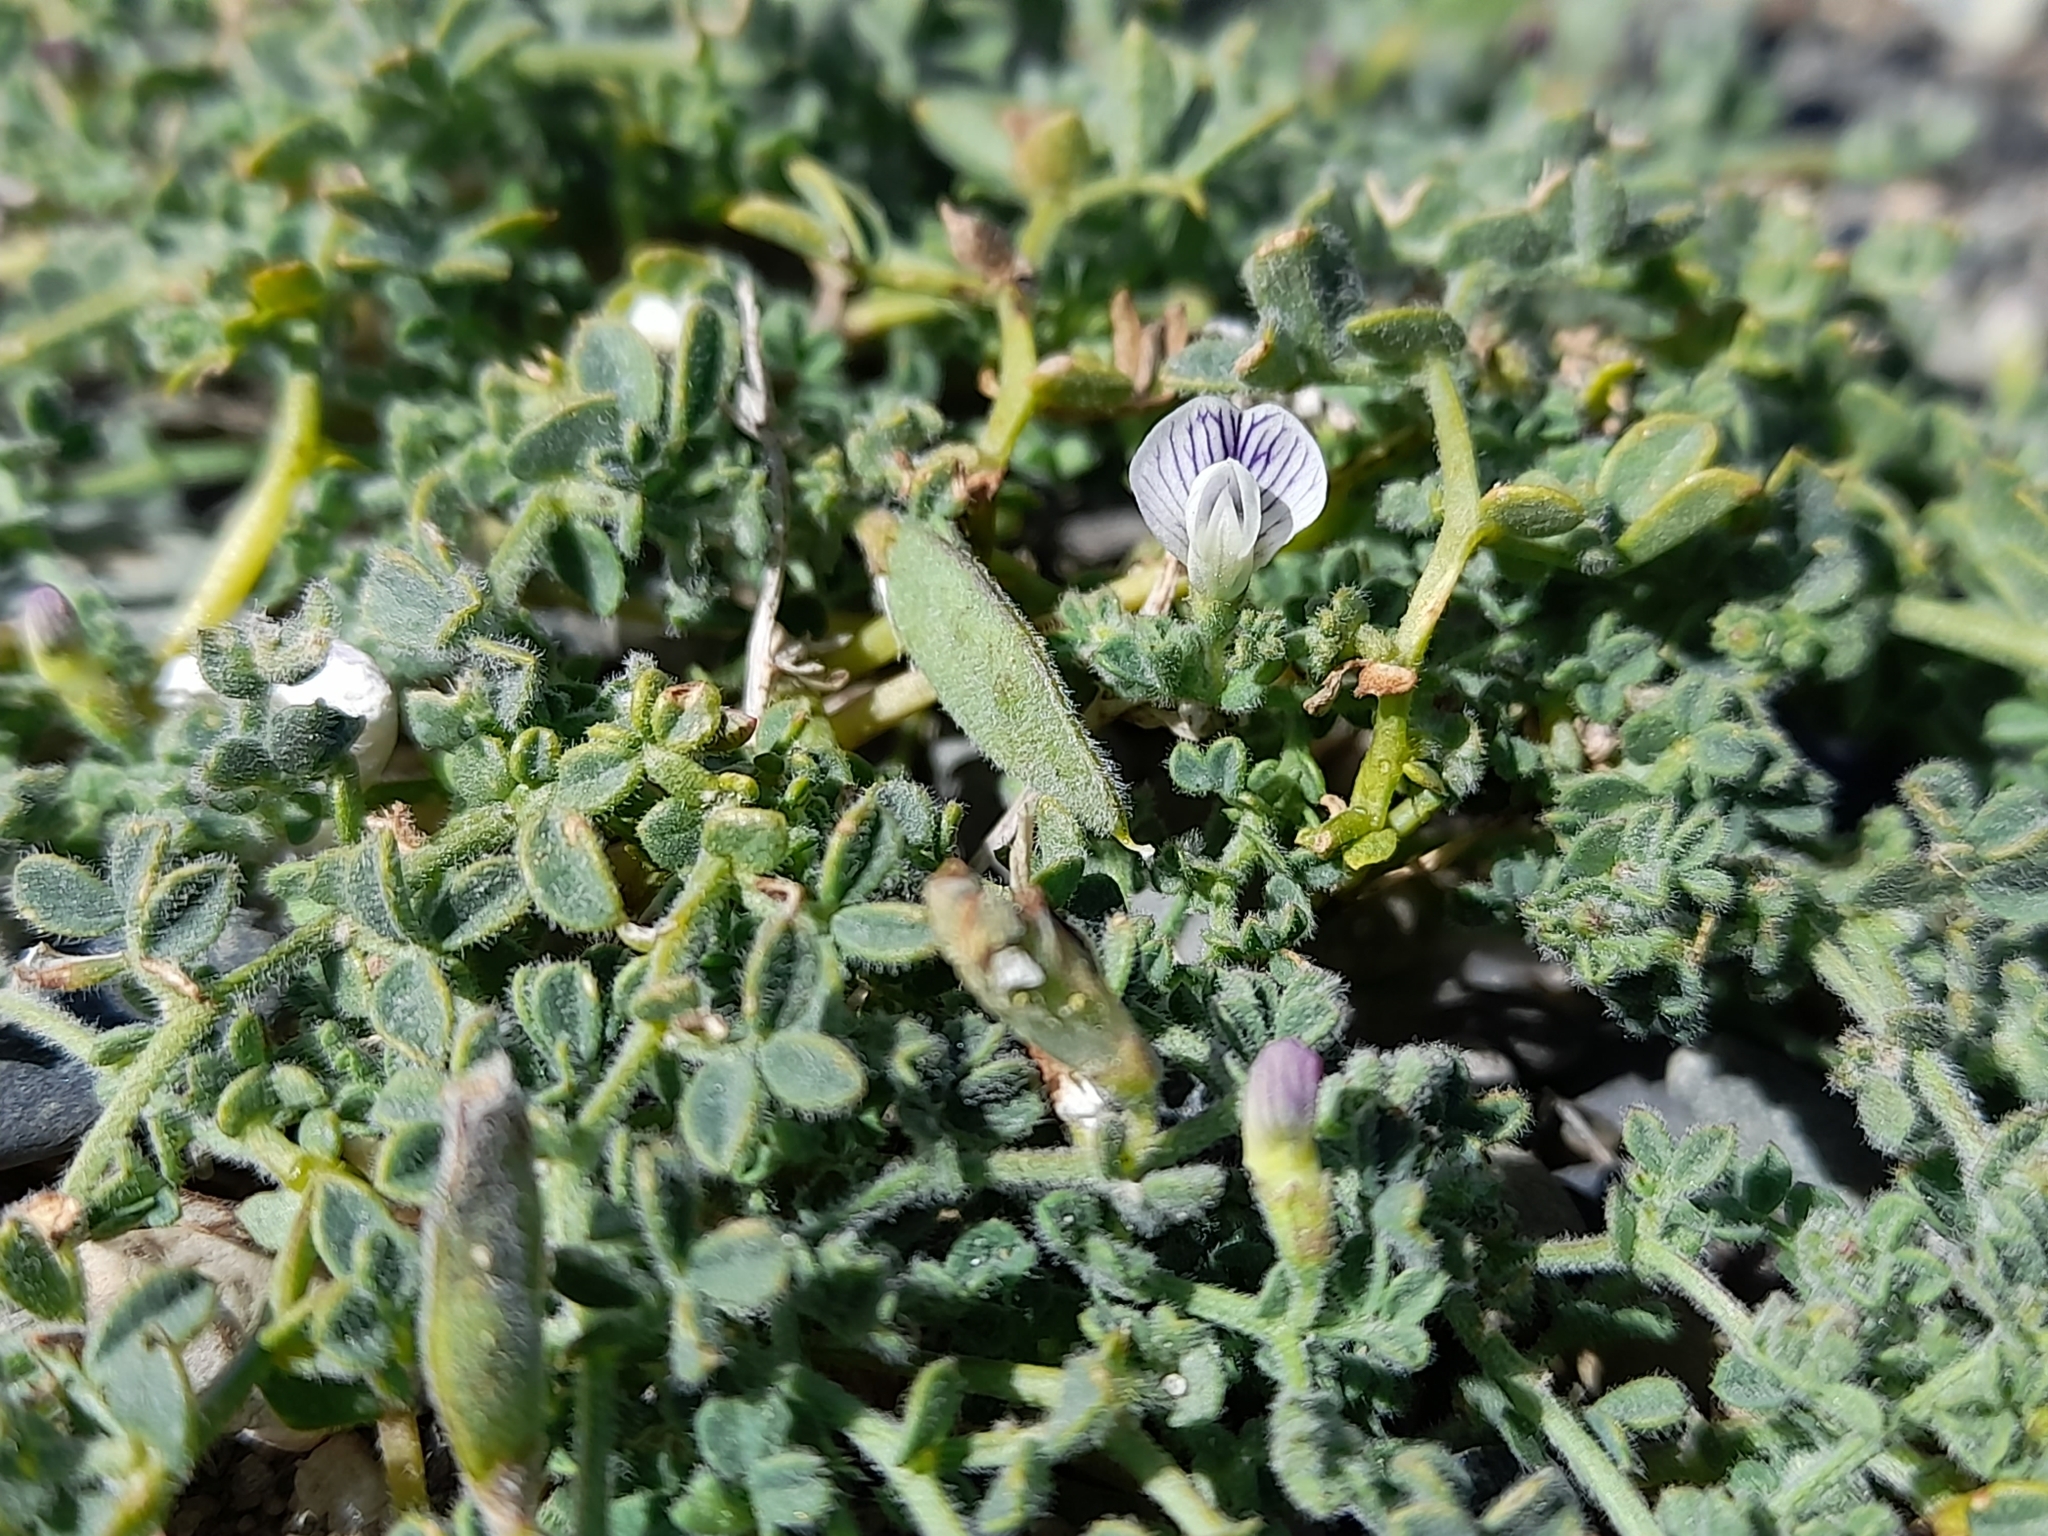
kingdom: Plantae
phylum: Tracheophyta
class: Magnoliopsida
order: Fabales
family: Fabaceae
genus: Vicia
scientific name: Vicia magellanica
